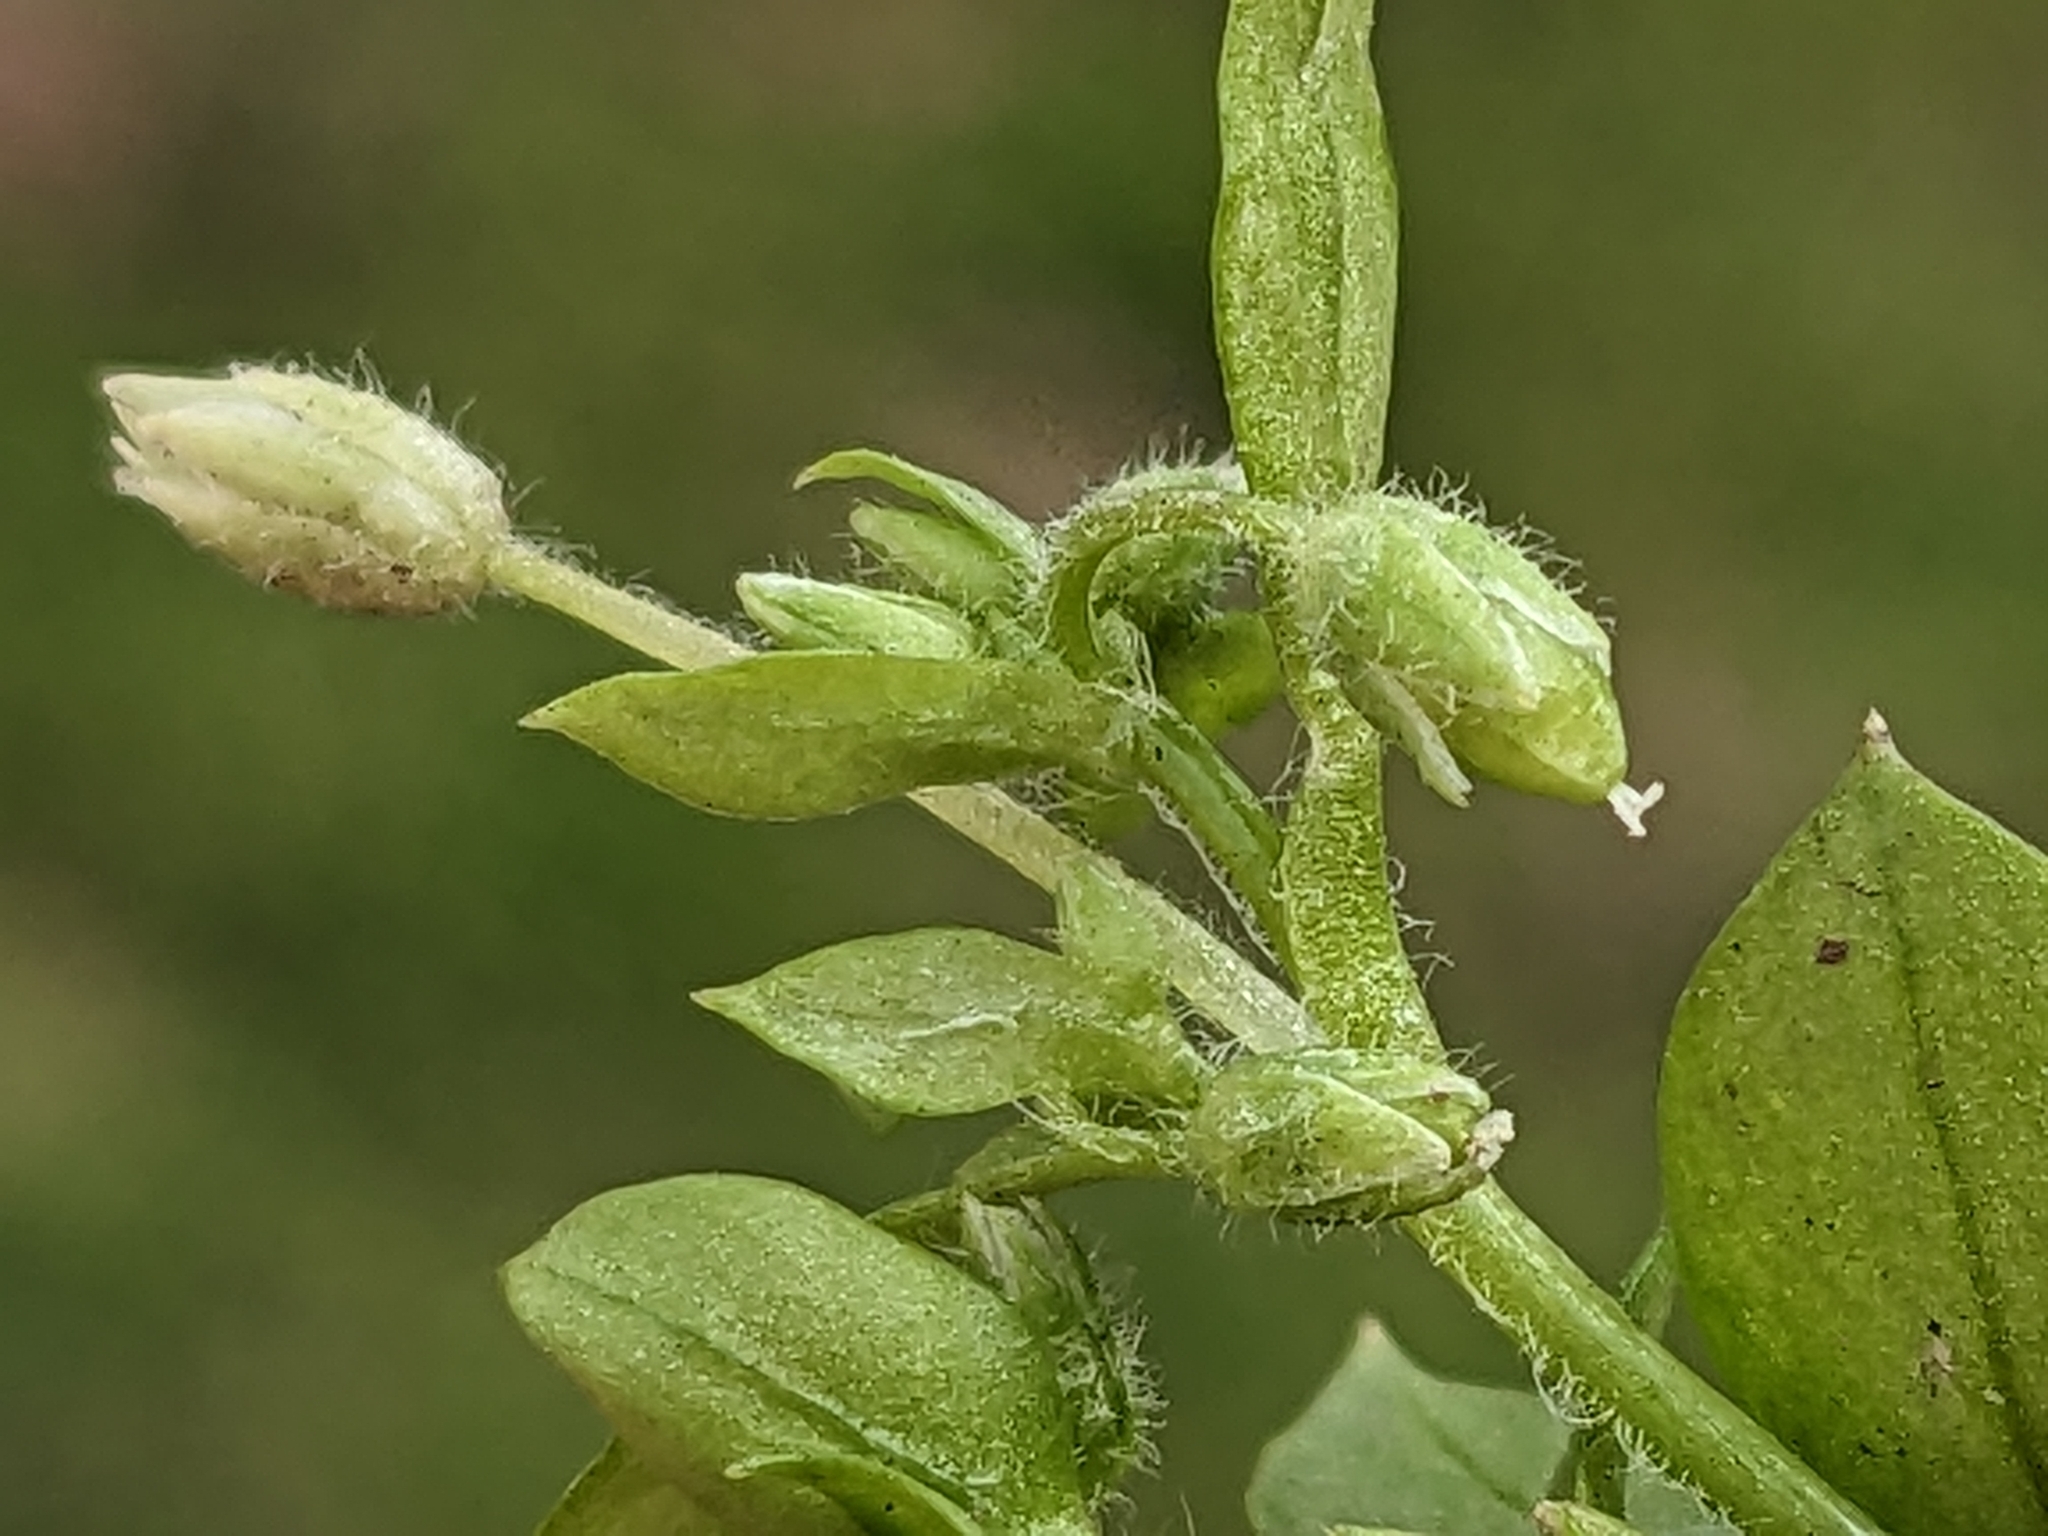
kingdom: Plantae
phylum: Tracheophyta
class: Magnoliopsida
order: Caryophyllales
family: Caryophyllaceae
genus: Stellaria
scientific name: Stellaria apetala
